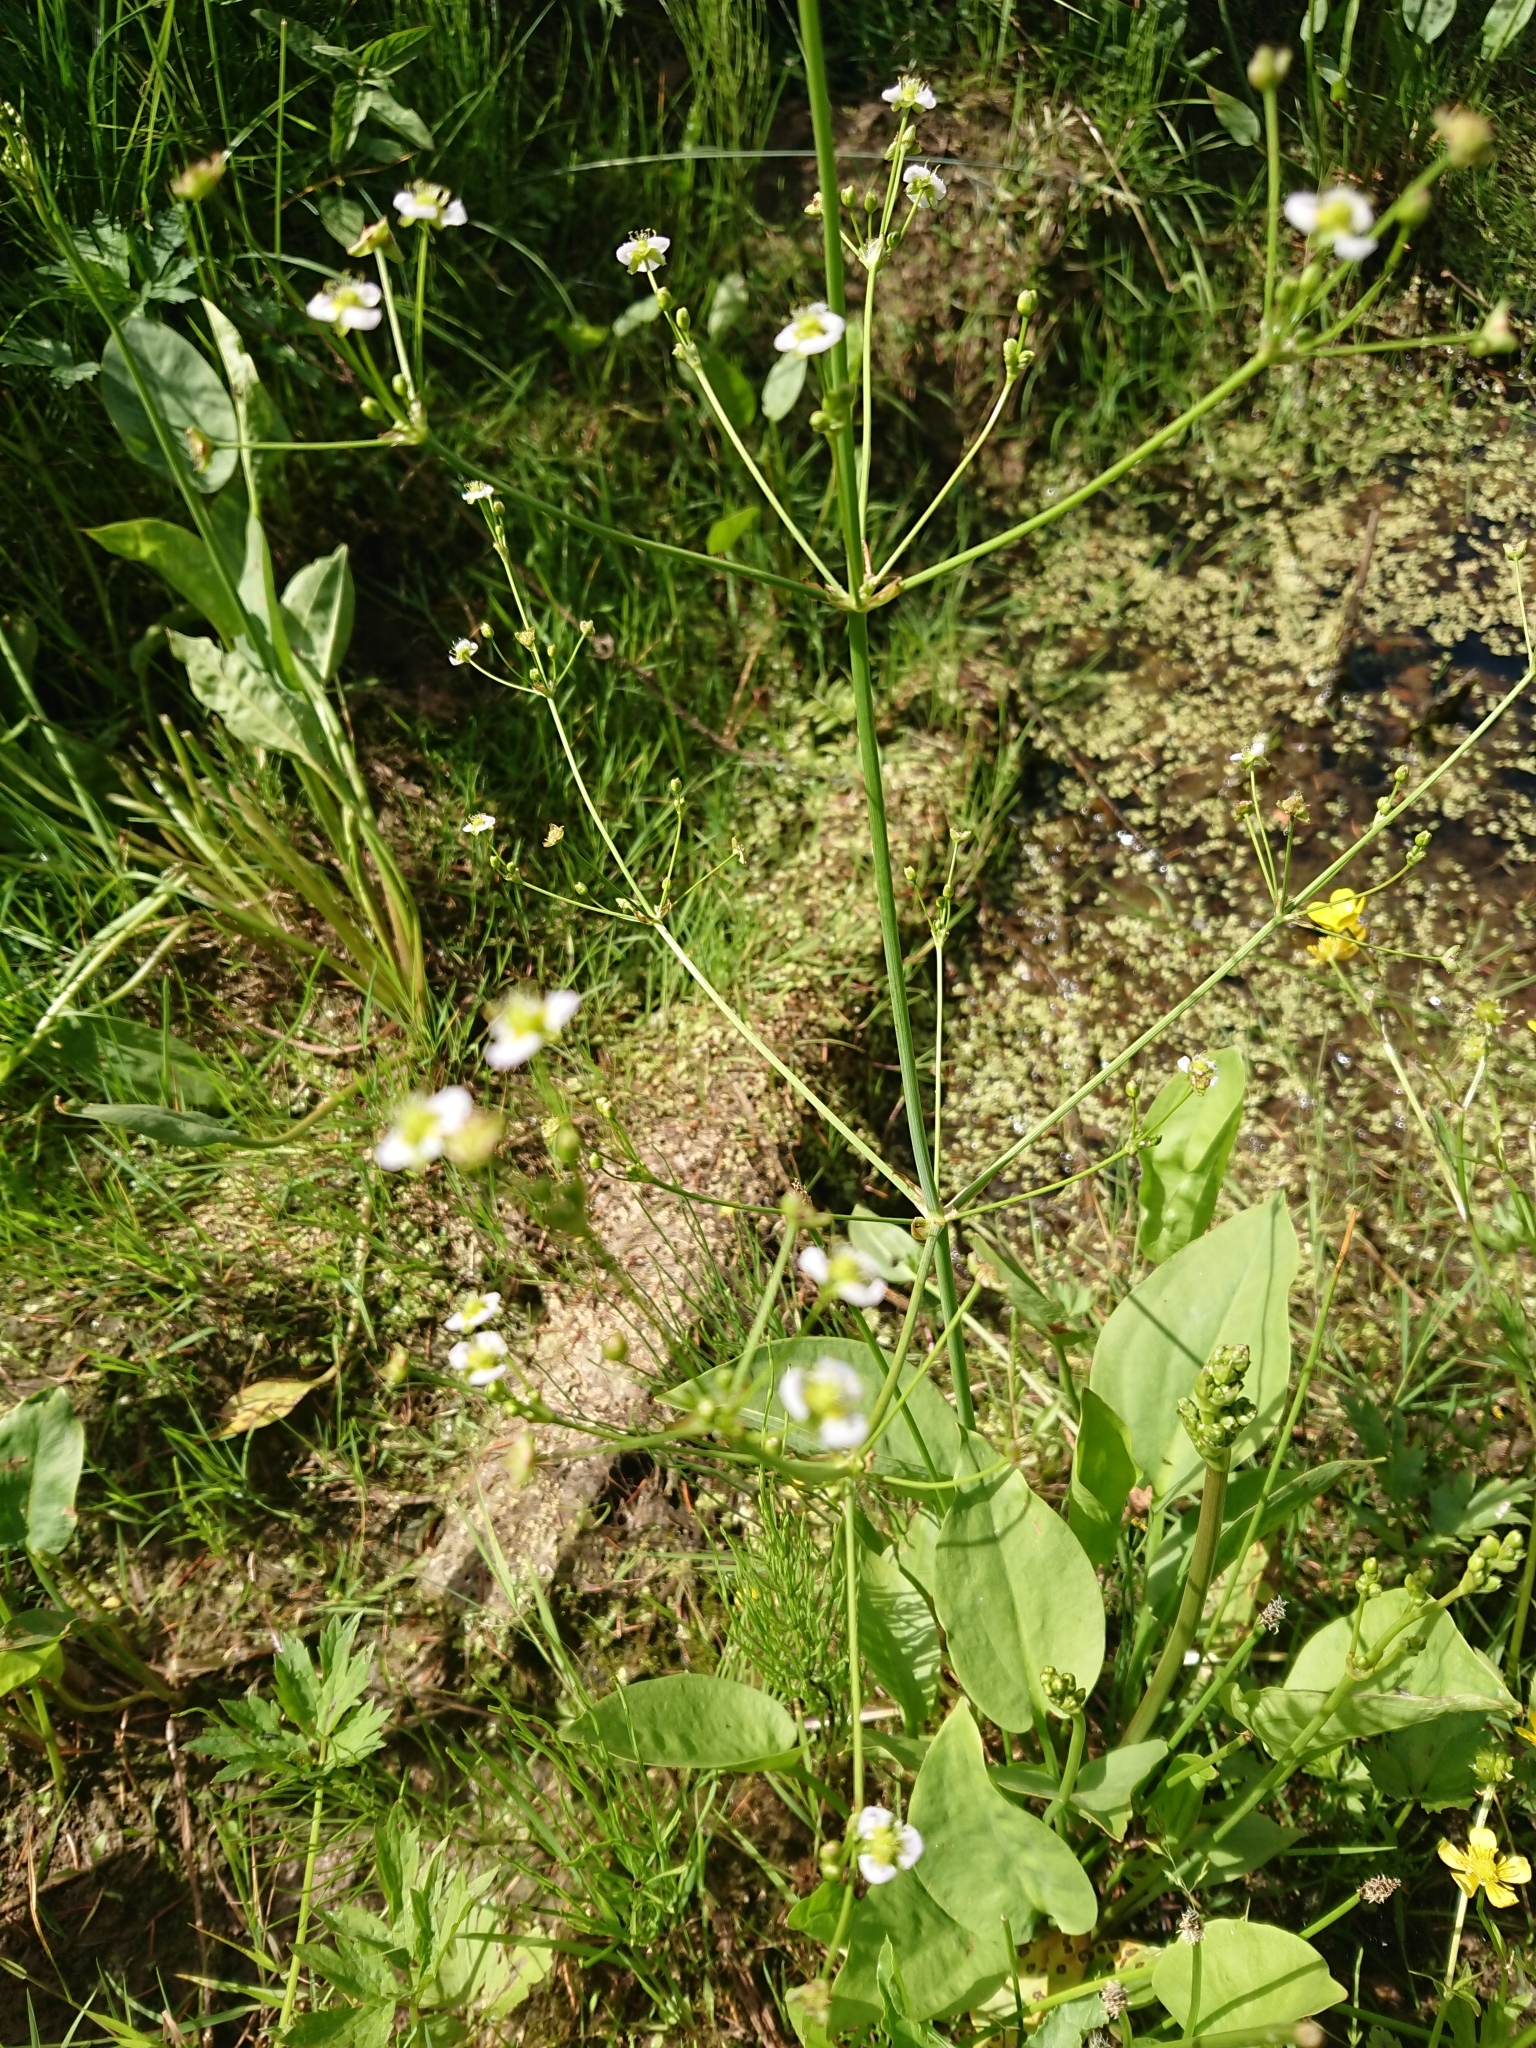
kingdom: Plantae
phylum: Tracheophyta
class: Liliopsida
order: Alismatales
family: Alismataceae
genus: Alisma
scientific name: Alisma plantago-aquatica
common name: Water-plantain
